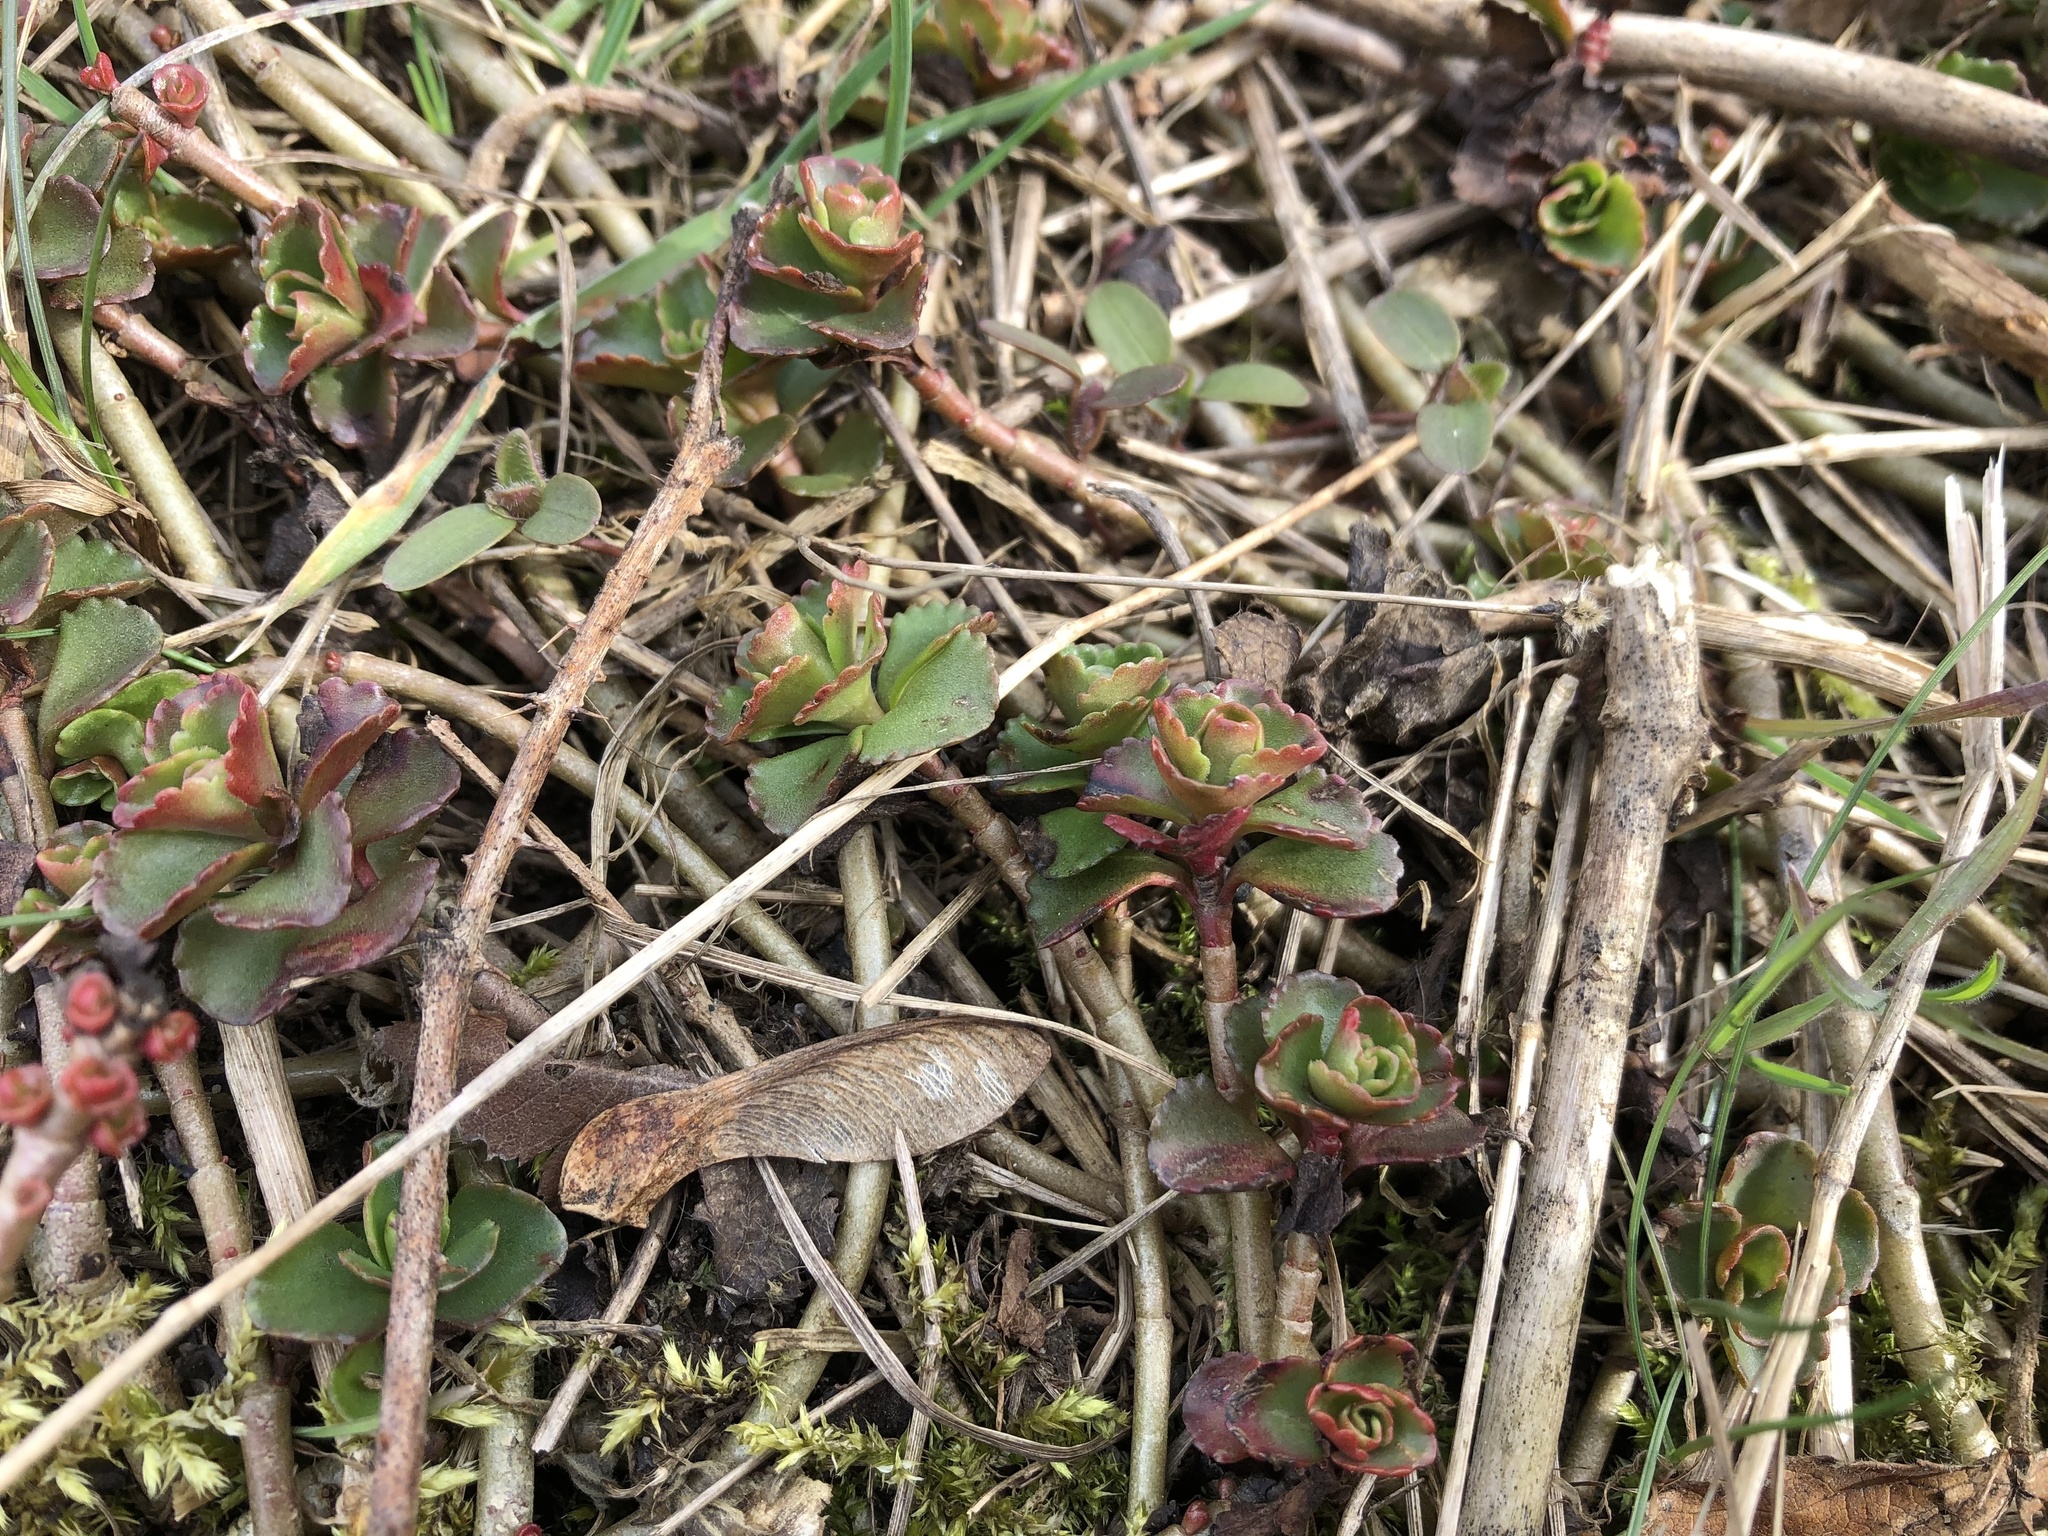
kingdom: Plantae
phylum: Tracheophyta
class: Magnoliopsida
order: Saxifragales
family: Crassulaceae
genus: Phedimus
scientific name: Phedimus spurius
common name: Caucasian stonecrop
